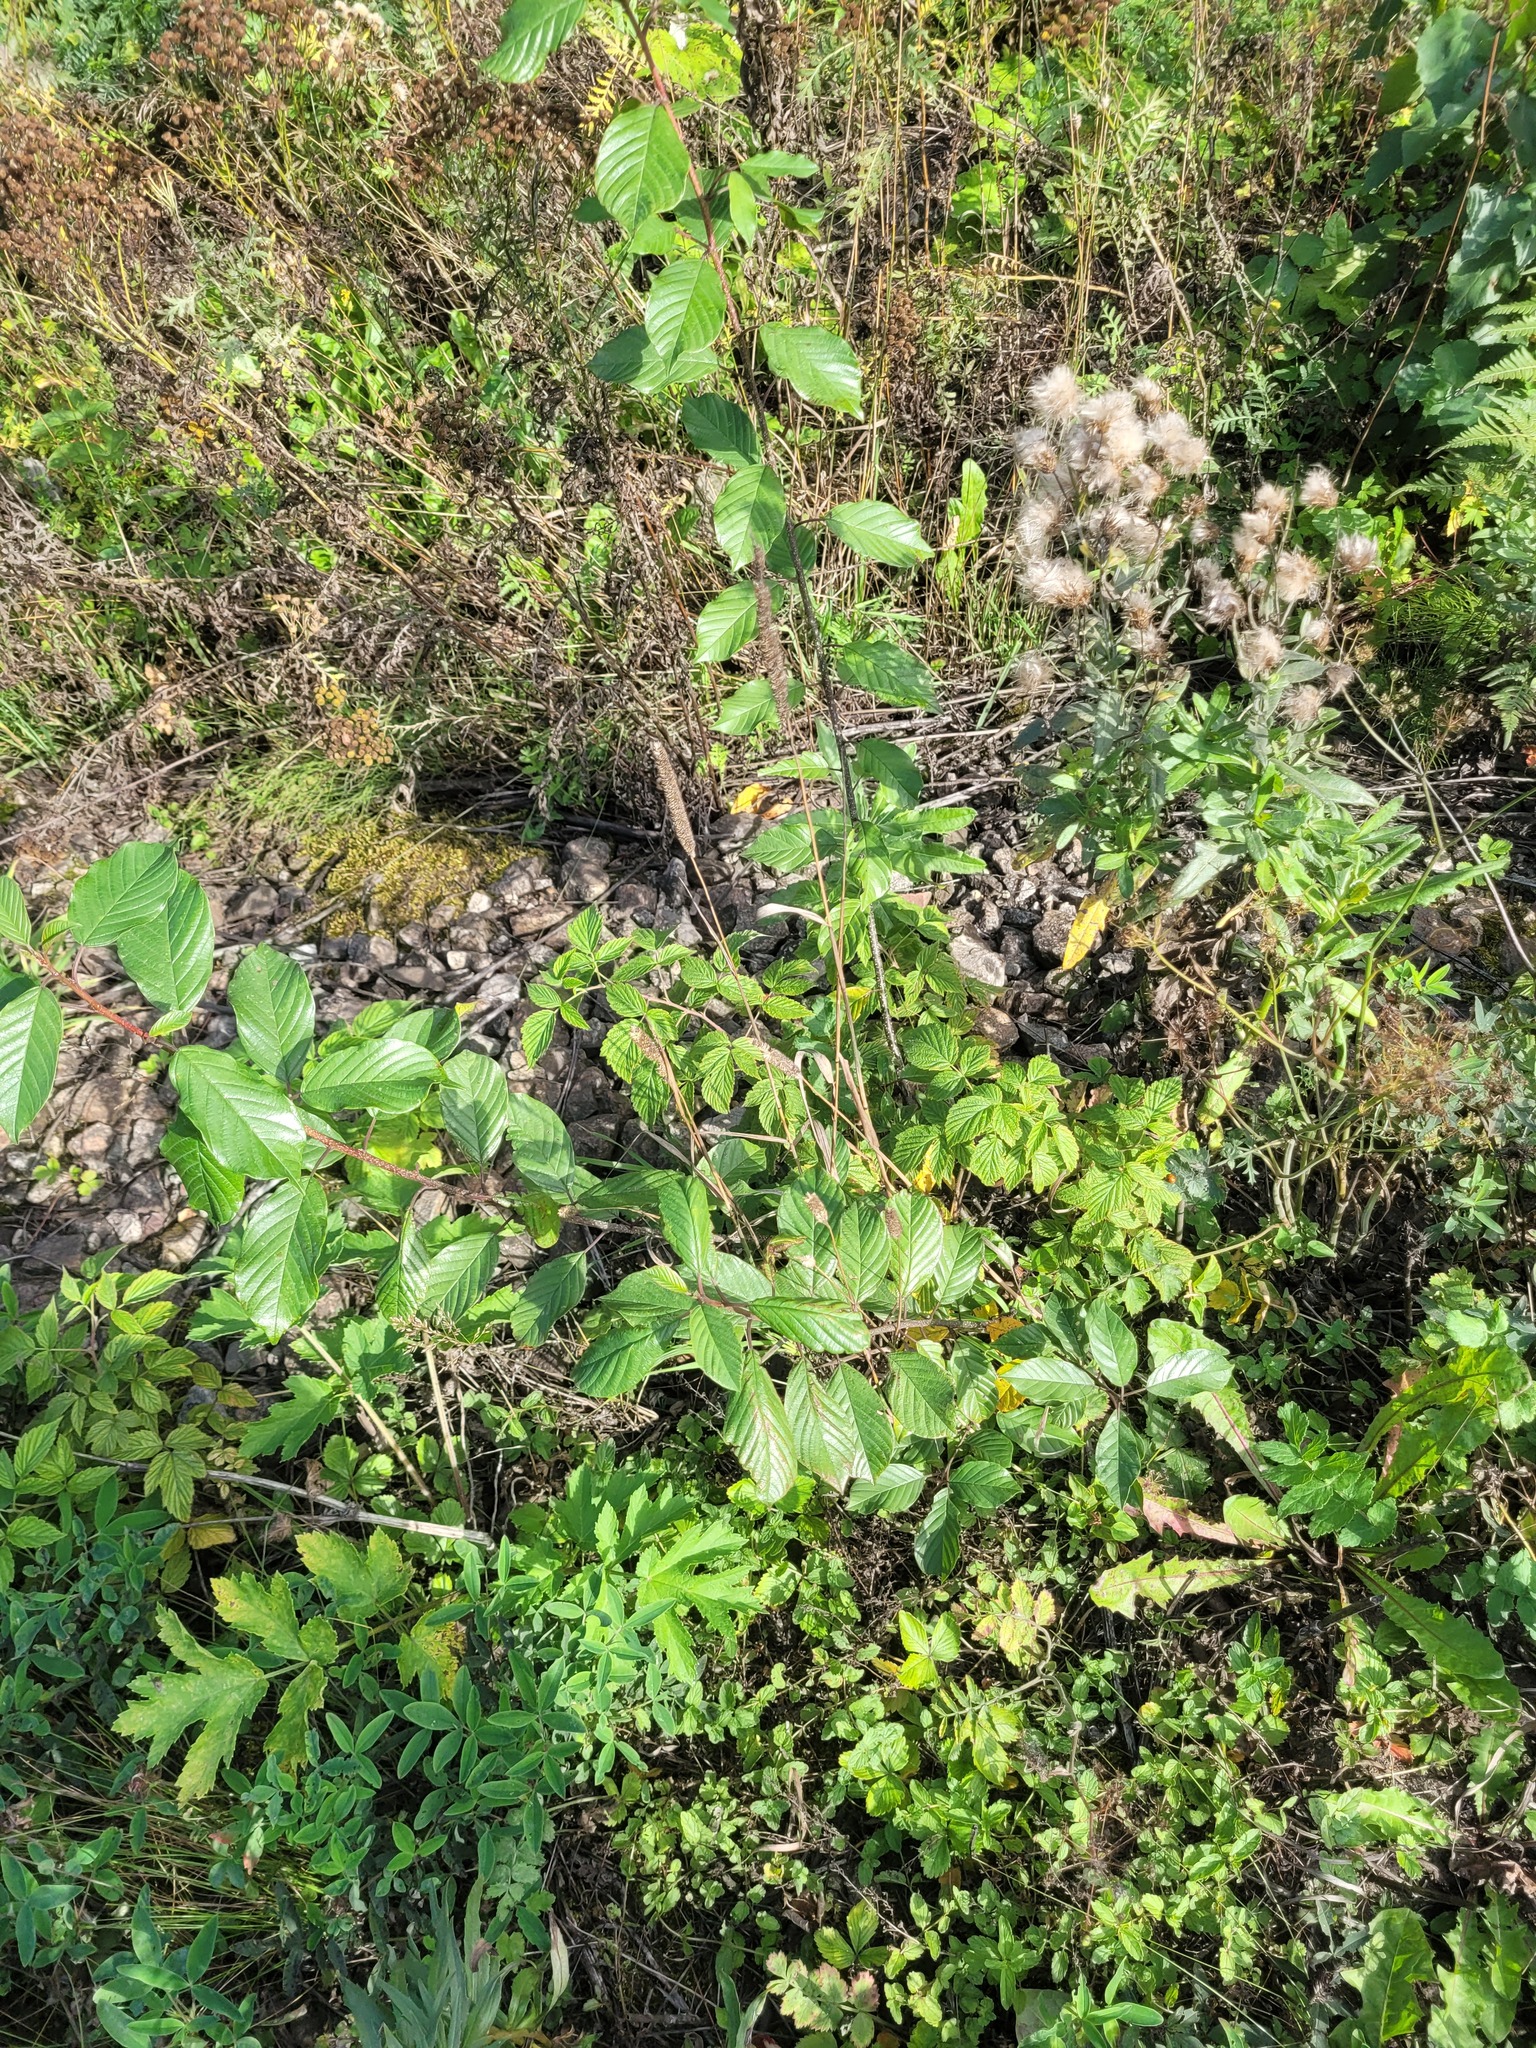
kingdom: Plantae
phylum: Tracheophyta
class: Magnoliopsida
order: Rosales
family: Rhamnaceae
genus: Frangula
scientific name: Frangula alnus
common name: Alder buckthorn
